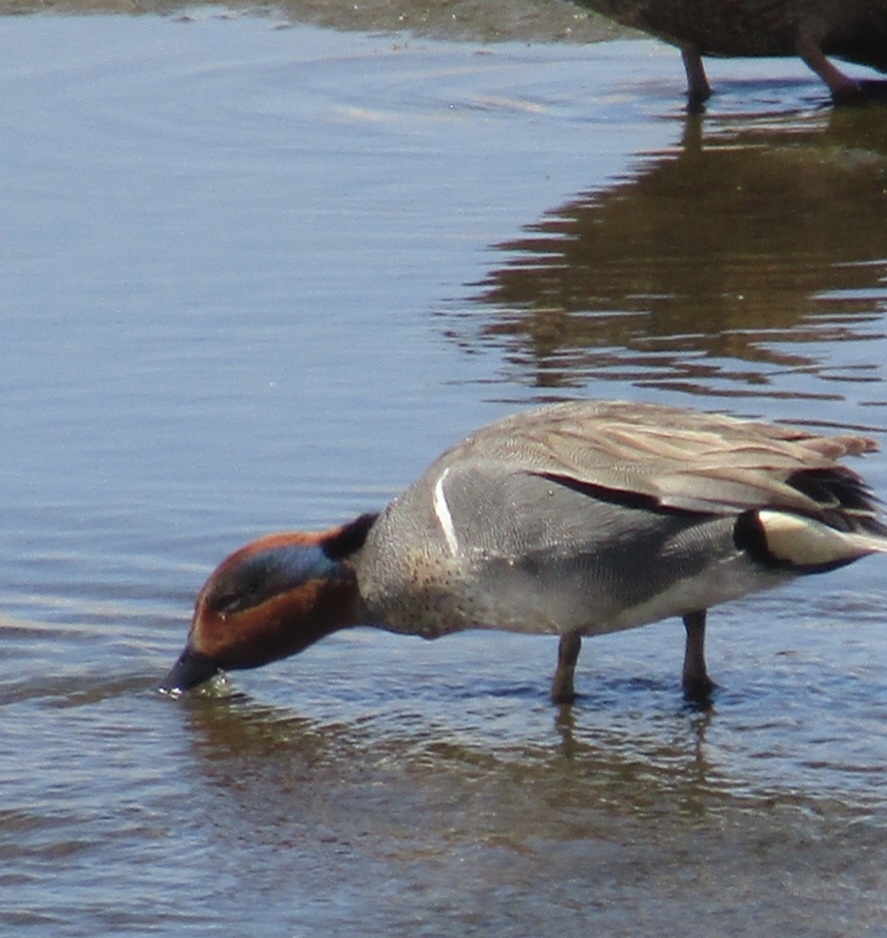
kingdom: Animalia
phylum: Chordata
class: Aves
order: Anseriformes
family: Anatidae
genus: Anas
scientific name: Anas crecca
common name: Eurasian teal
